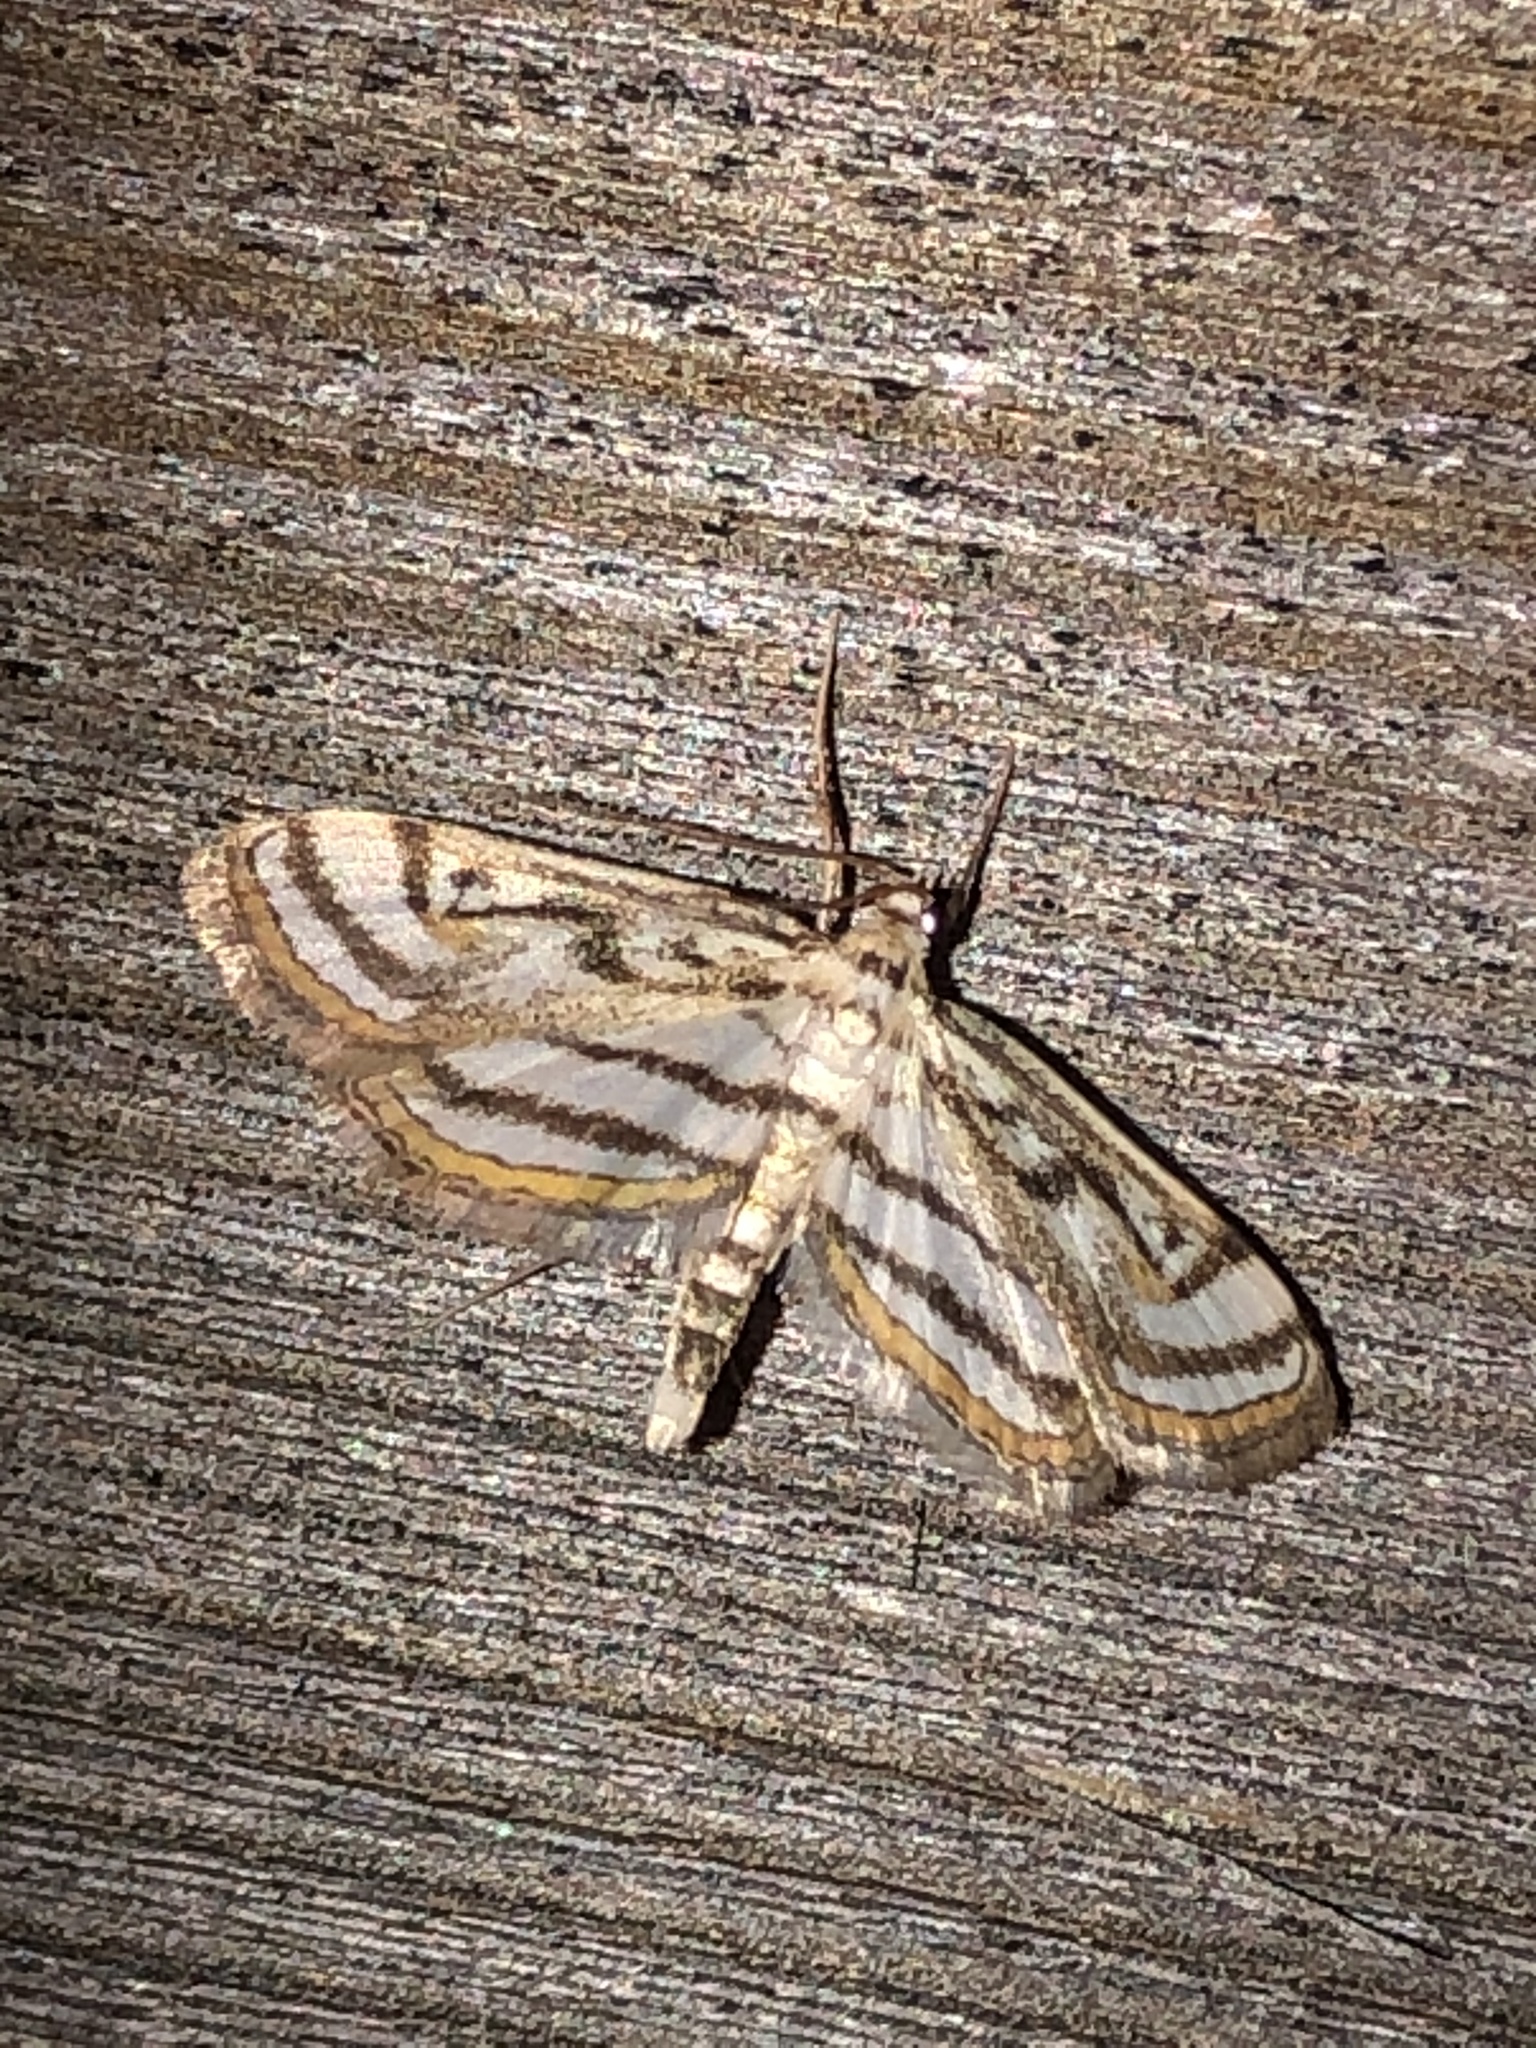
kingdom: Animalia
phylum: Arthropoda
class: Insecta
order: Lepidoptera
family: Crambidae
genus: Parapoynx
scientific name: Parapoynx badiusalis
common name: Chestnut-marked pondweed moth
